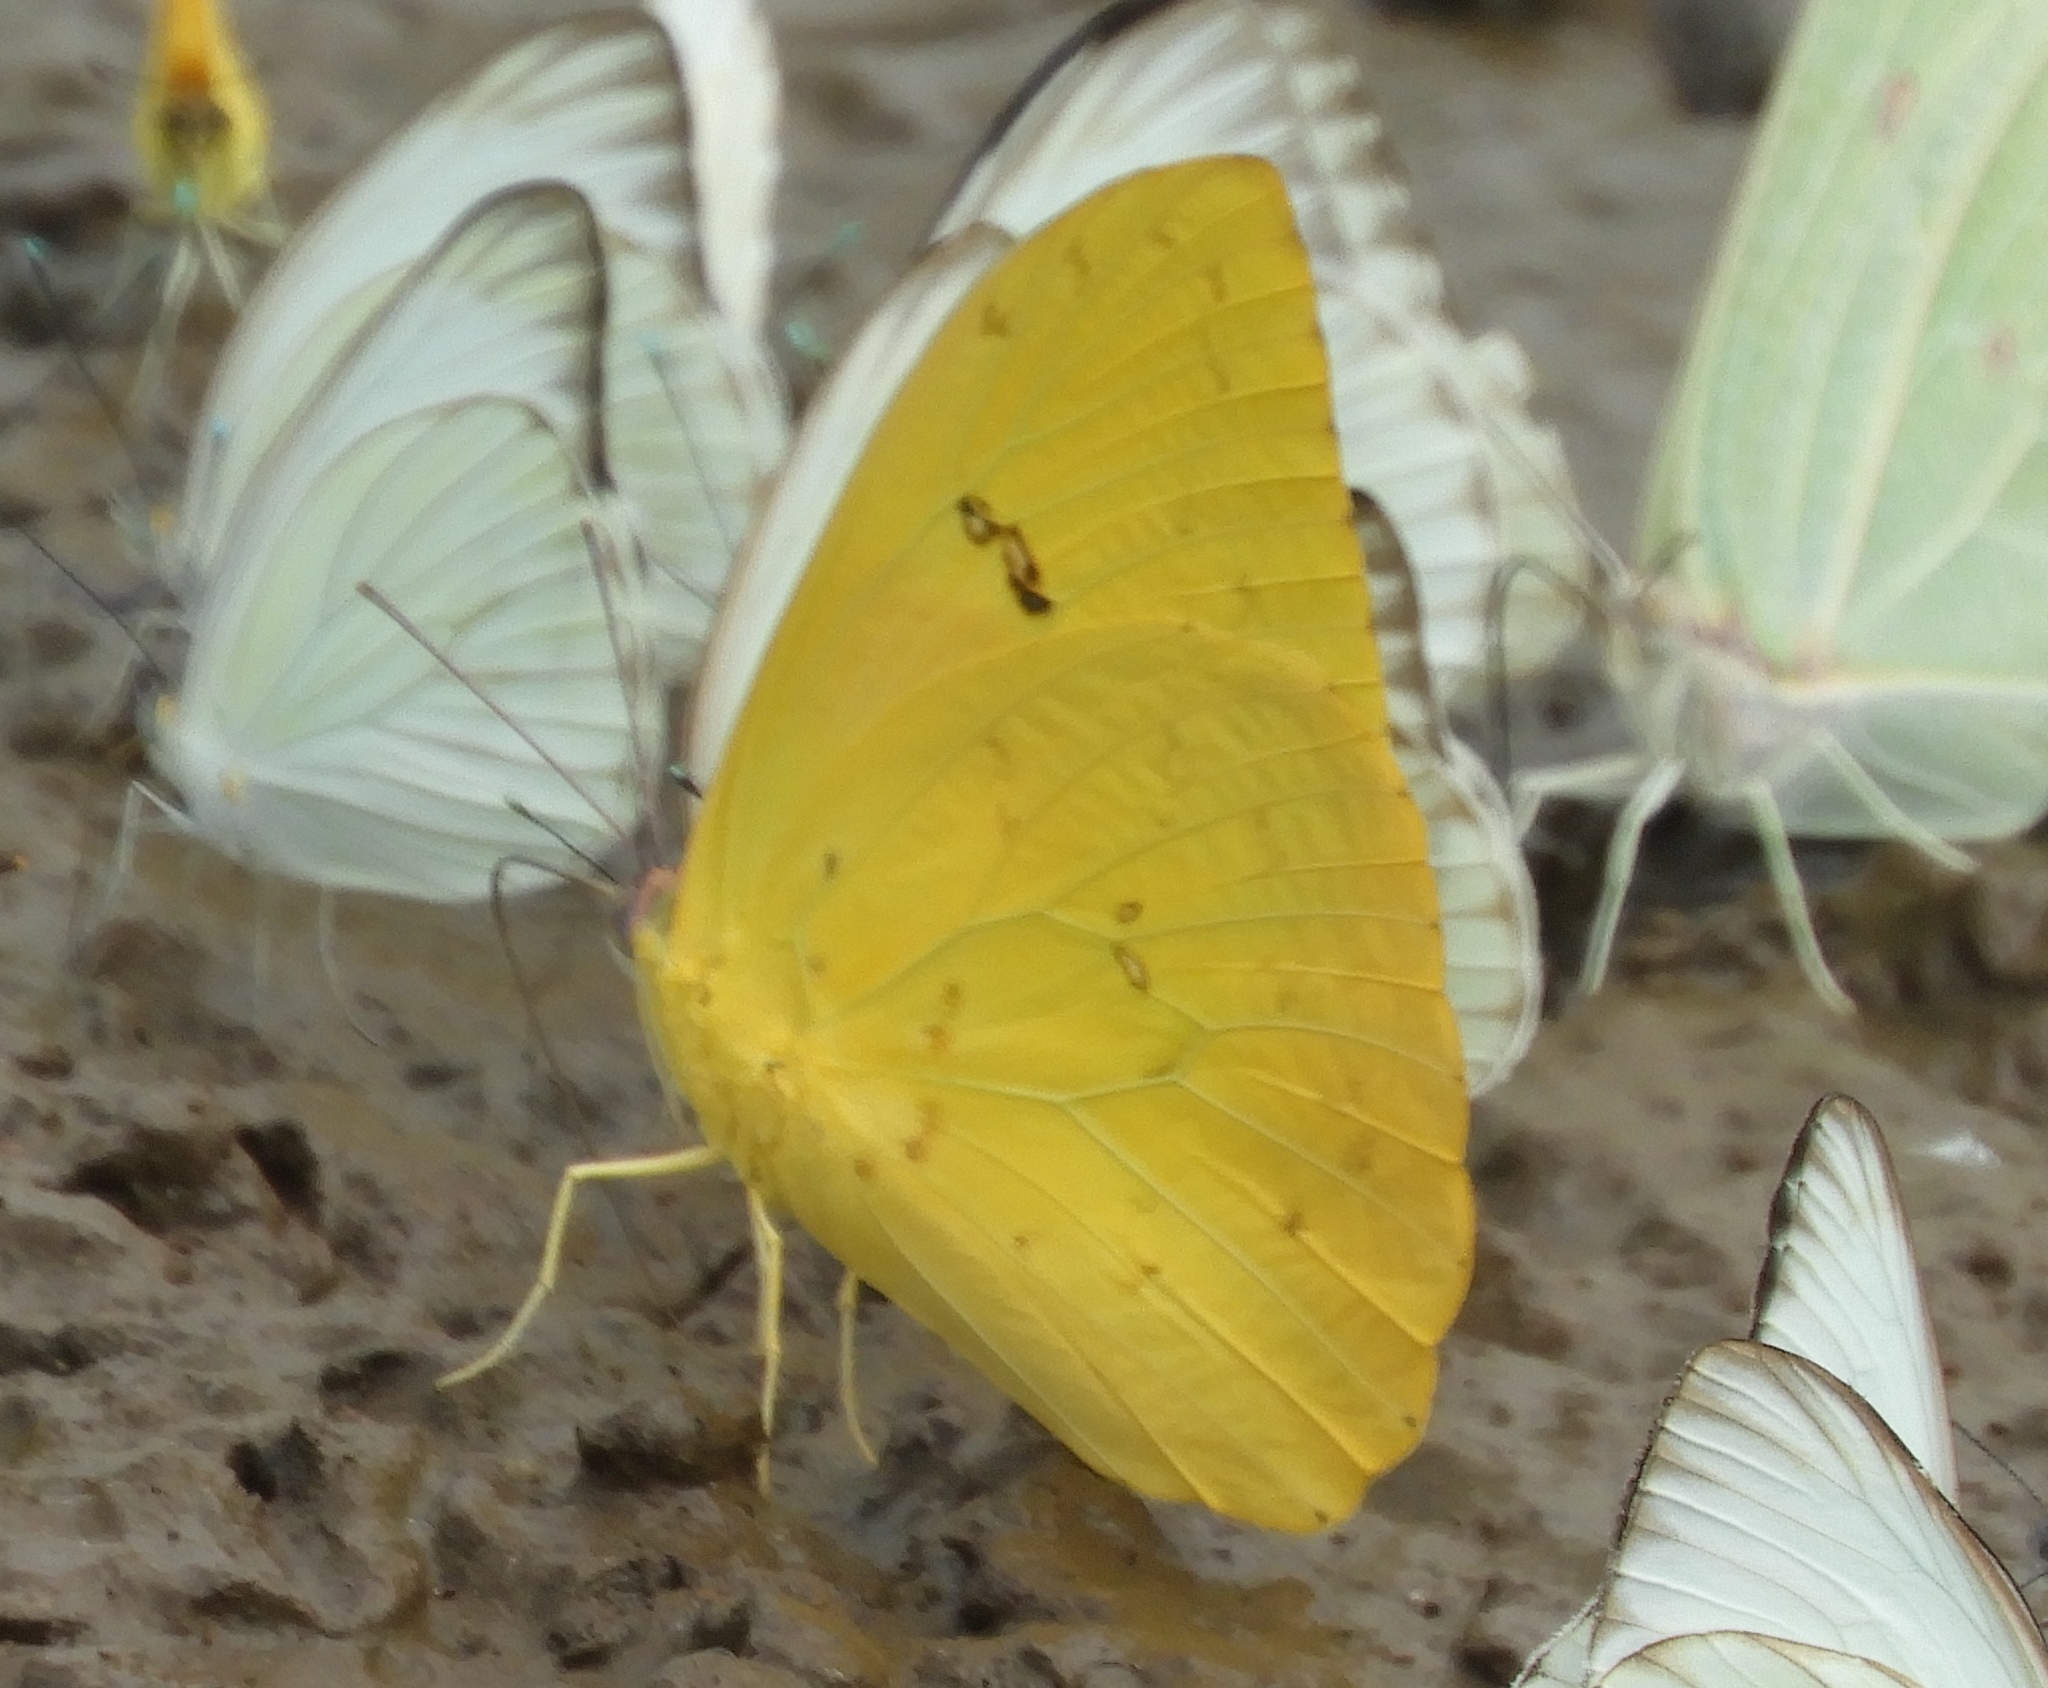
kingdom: Animalia
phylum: Arthropoda
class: Insecta
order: Lepidoptera
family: Pieridae
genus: Phoebis
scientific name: Phoebis philea
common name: Orange-barred giant sulphur
